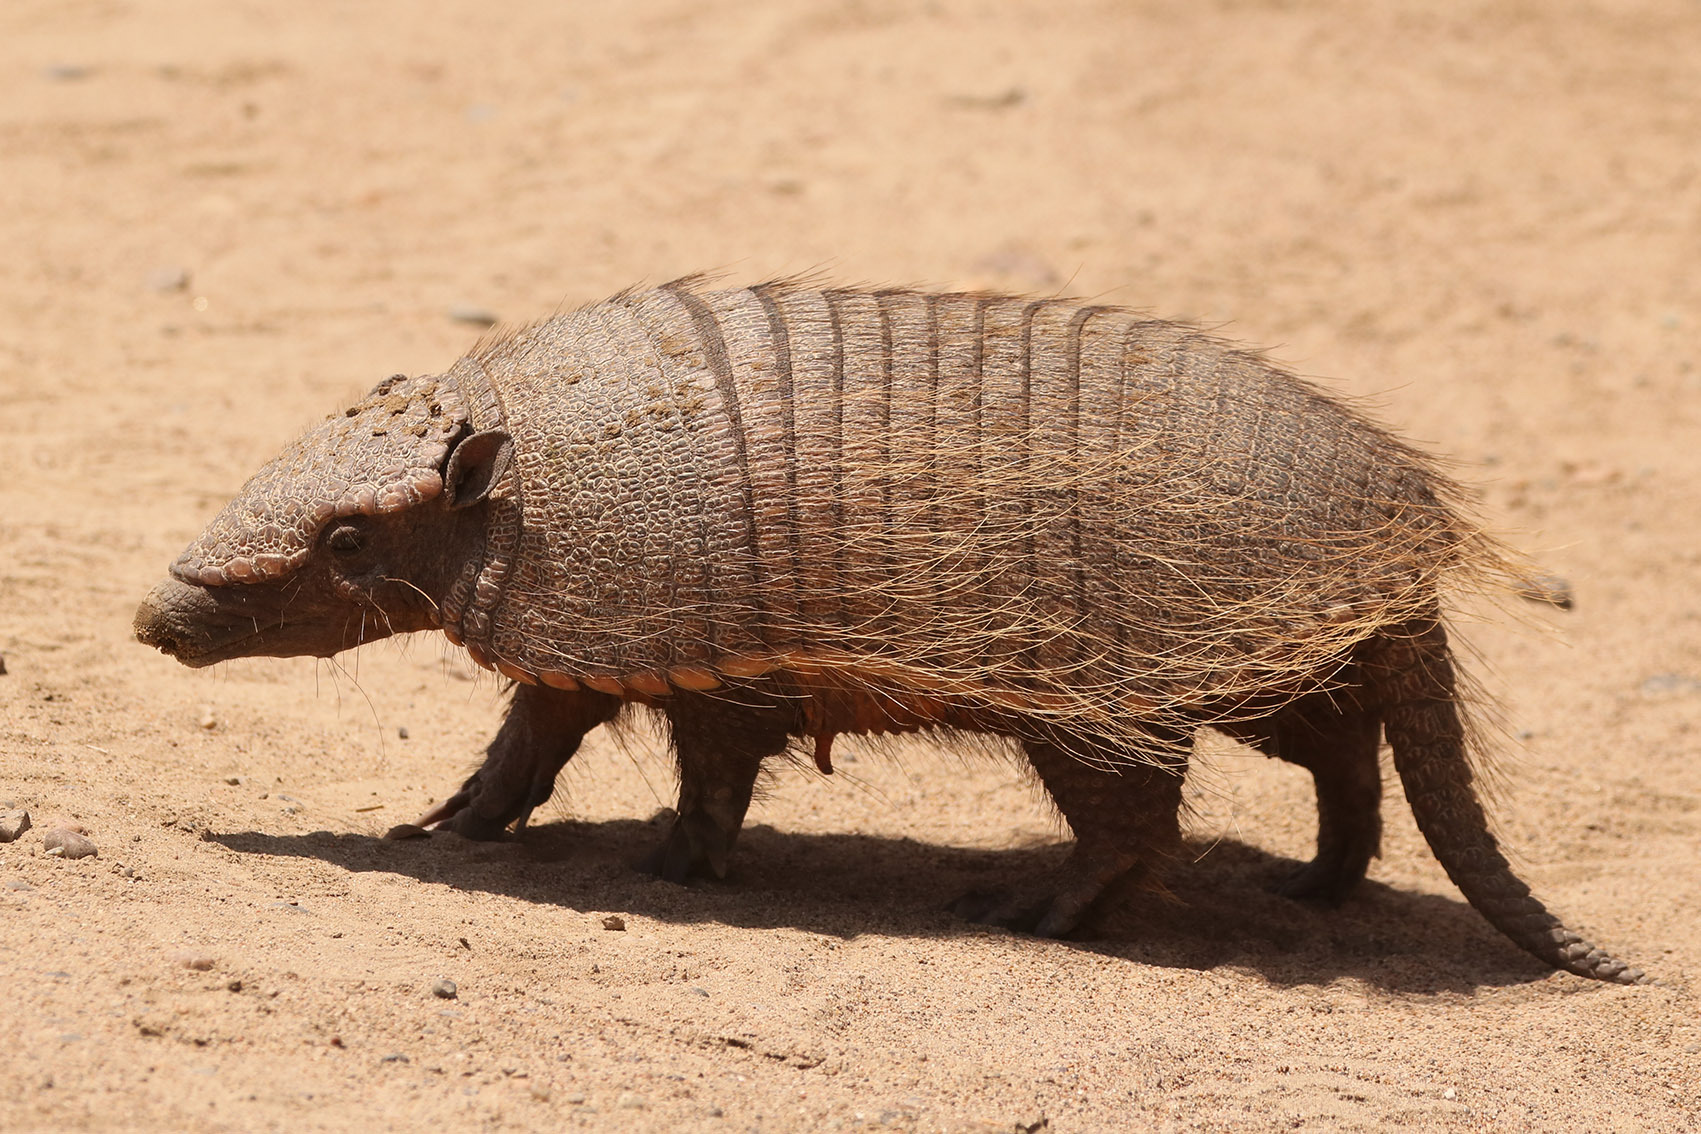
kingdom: Animalia
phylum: Chordata
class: Mammalia
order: Cingulata
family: Dasypodidae
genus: Chaetophractus
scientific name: Chaetophractus villosus
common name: Big hairy armadillo
